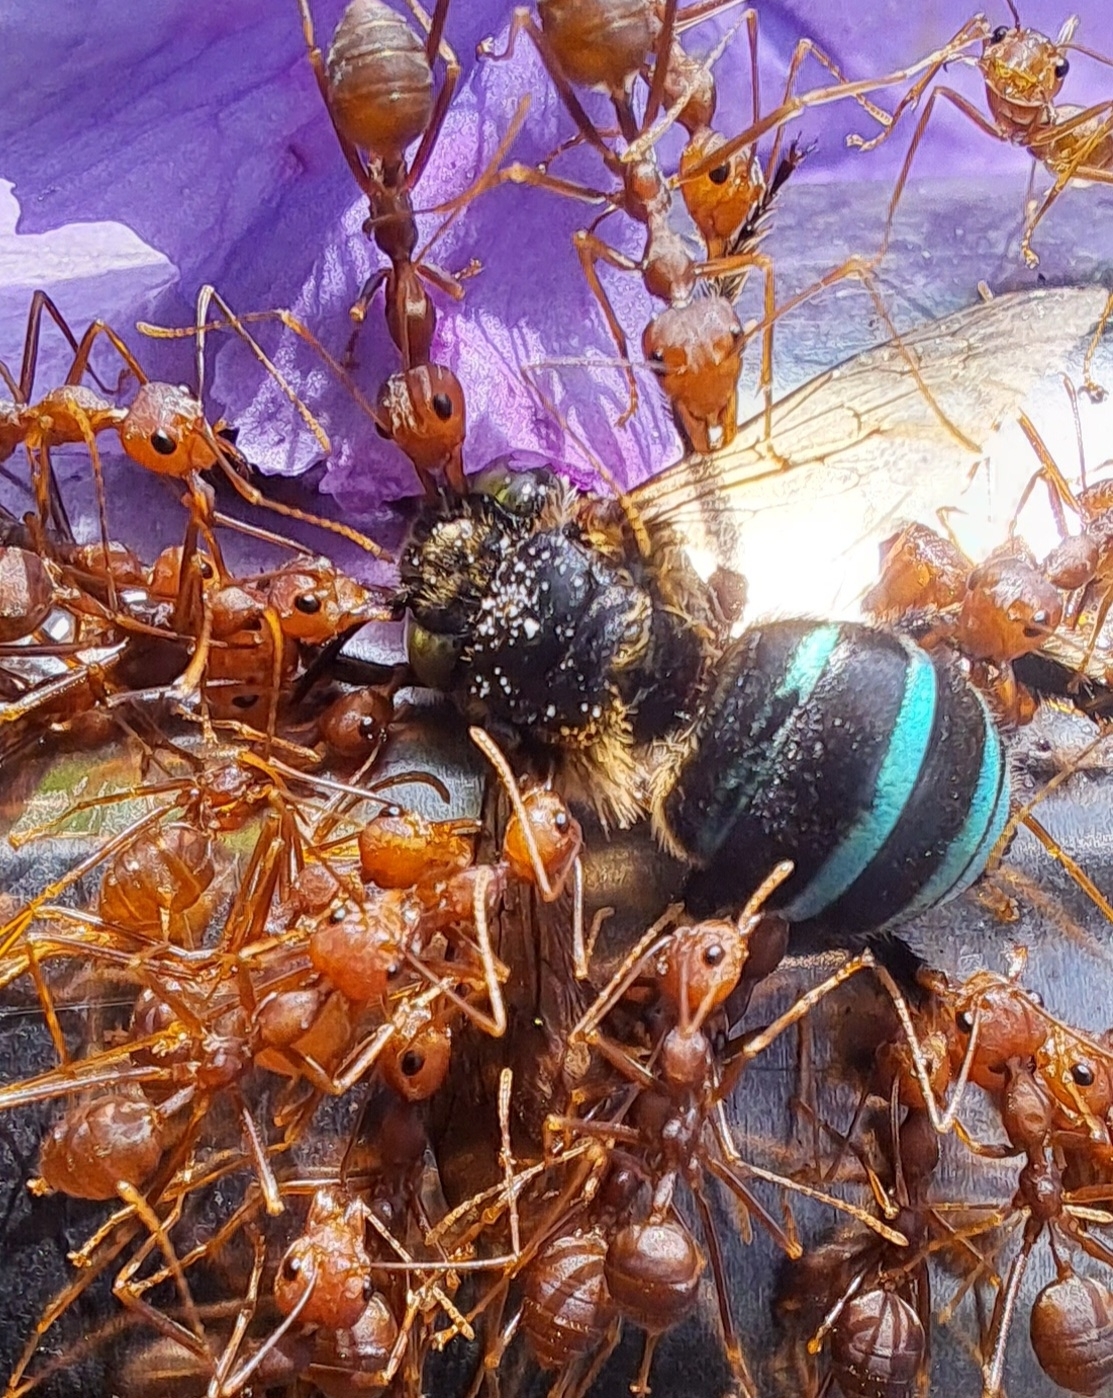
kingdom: Animalia
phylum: Arthropoda
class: Insecta
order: Hymenoptera
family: Formicidae
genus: Oecophylla
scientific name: Oecophylla smaragdina
